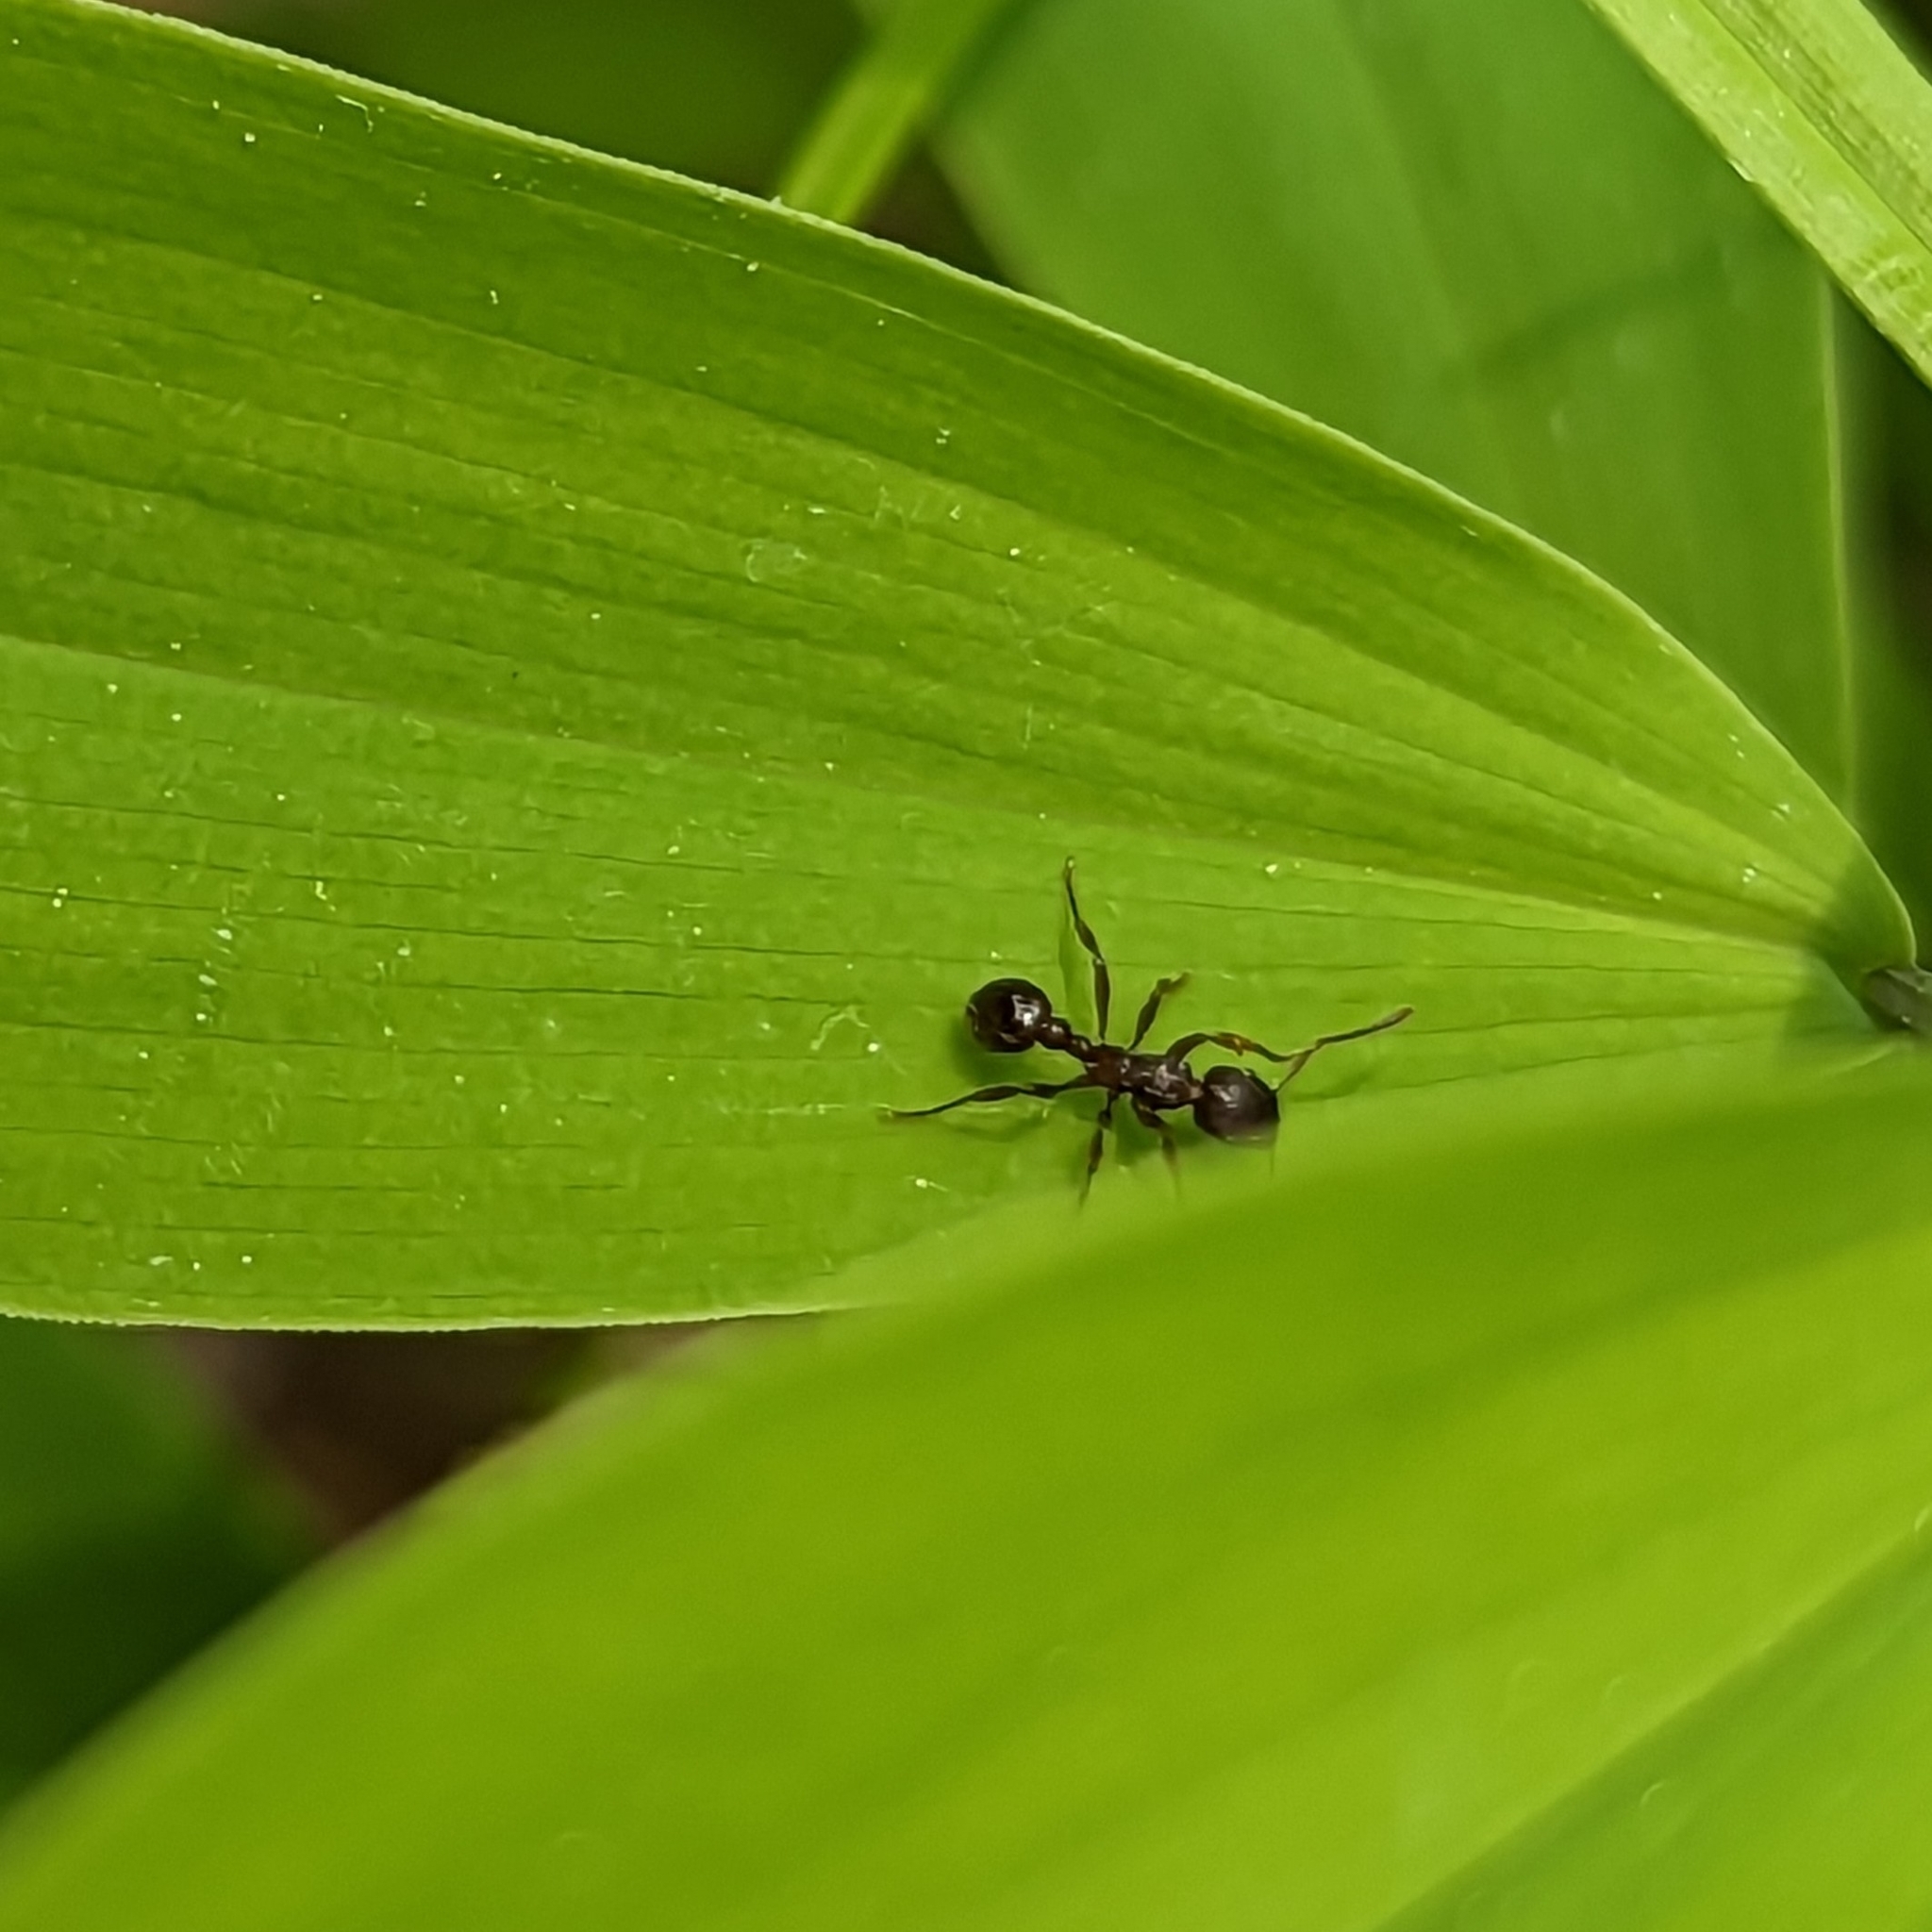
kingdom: Animalia
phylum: Arthropoda
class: Insecta
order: Hymenoptera
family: Formicidae
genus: Myrmica
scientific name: Myrmica
